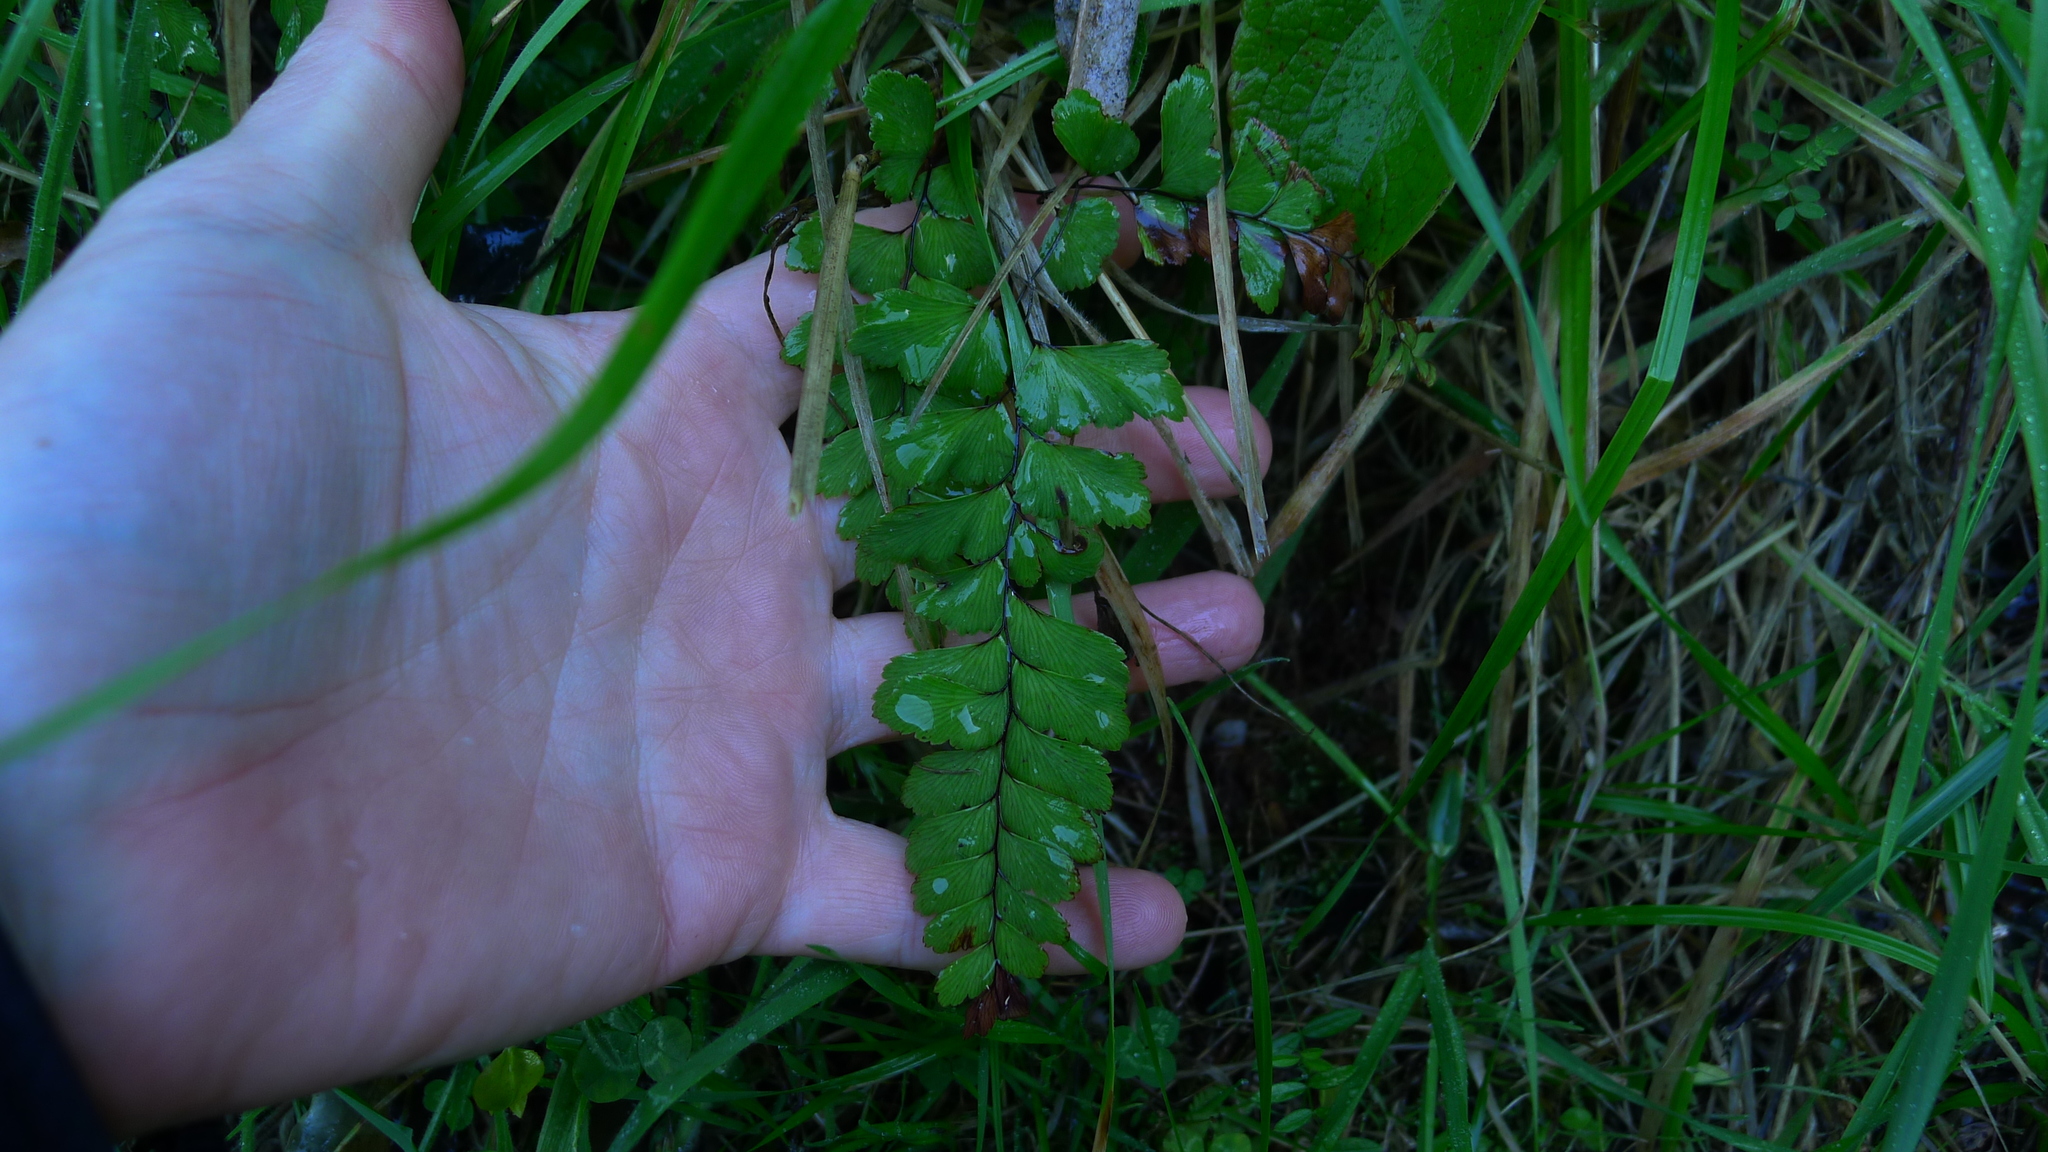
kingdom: Plantae
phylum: Tracheophyta
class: Polypodiopsida
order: Polypodiales
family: Pteridaceae
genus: Adiantum
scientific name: Adiantum cunninghamii
